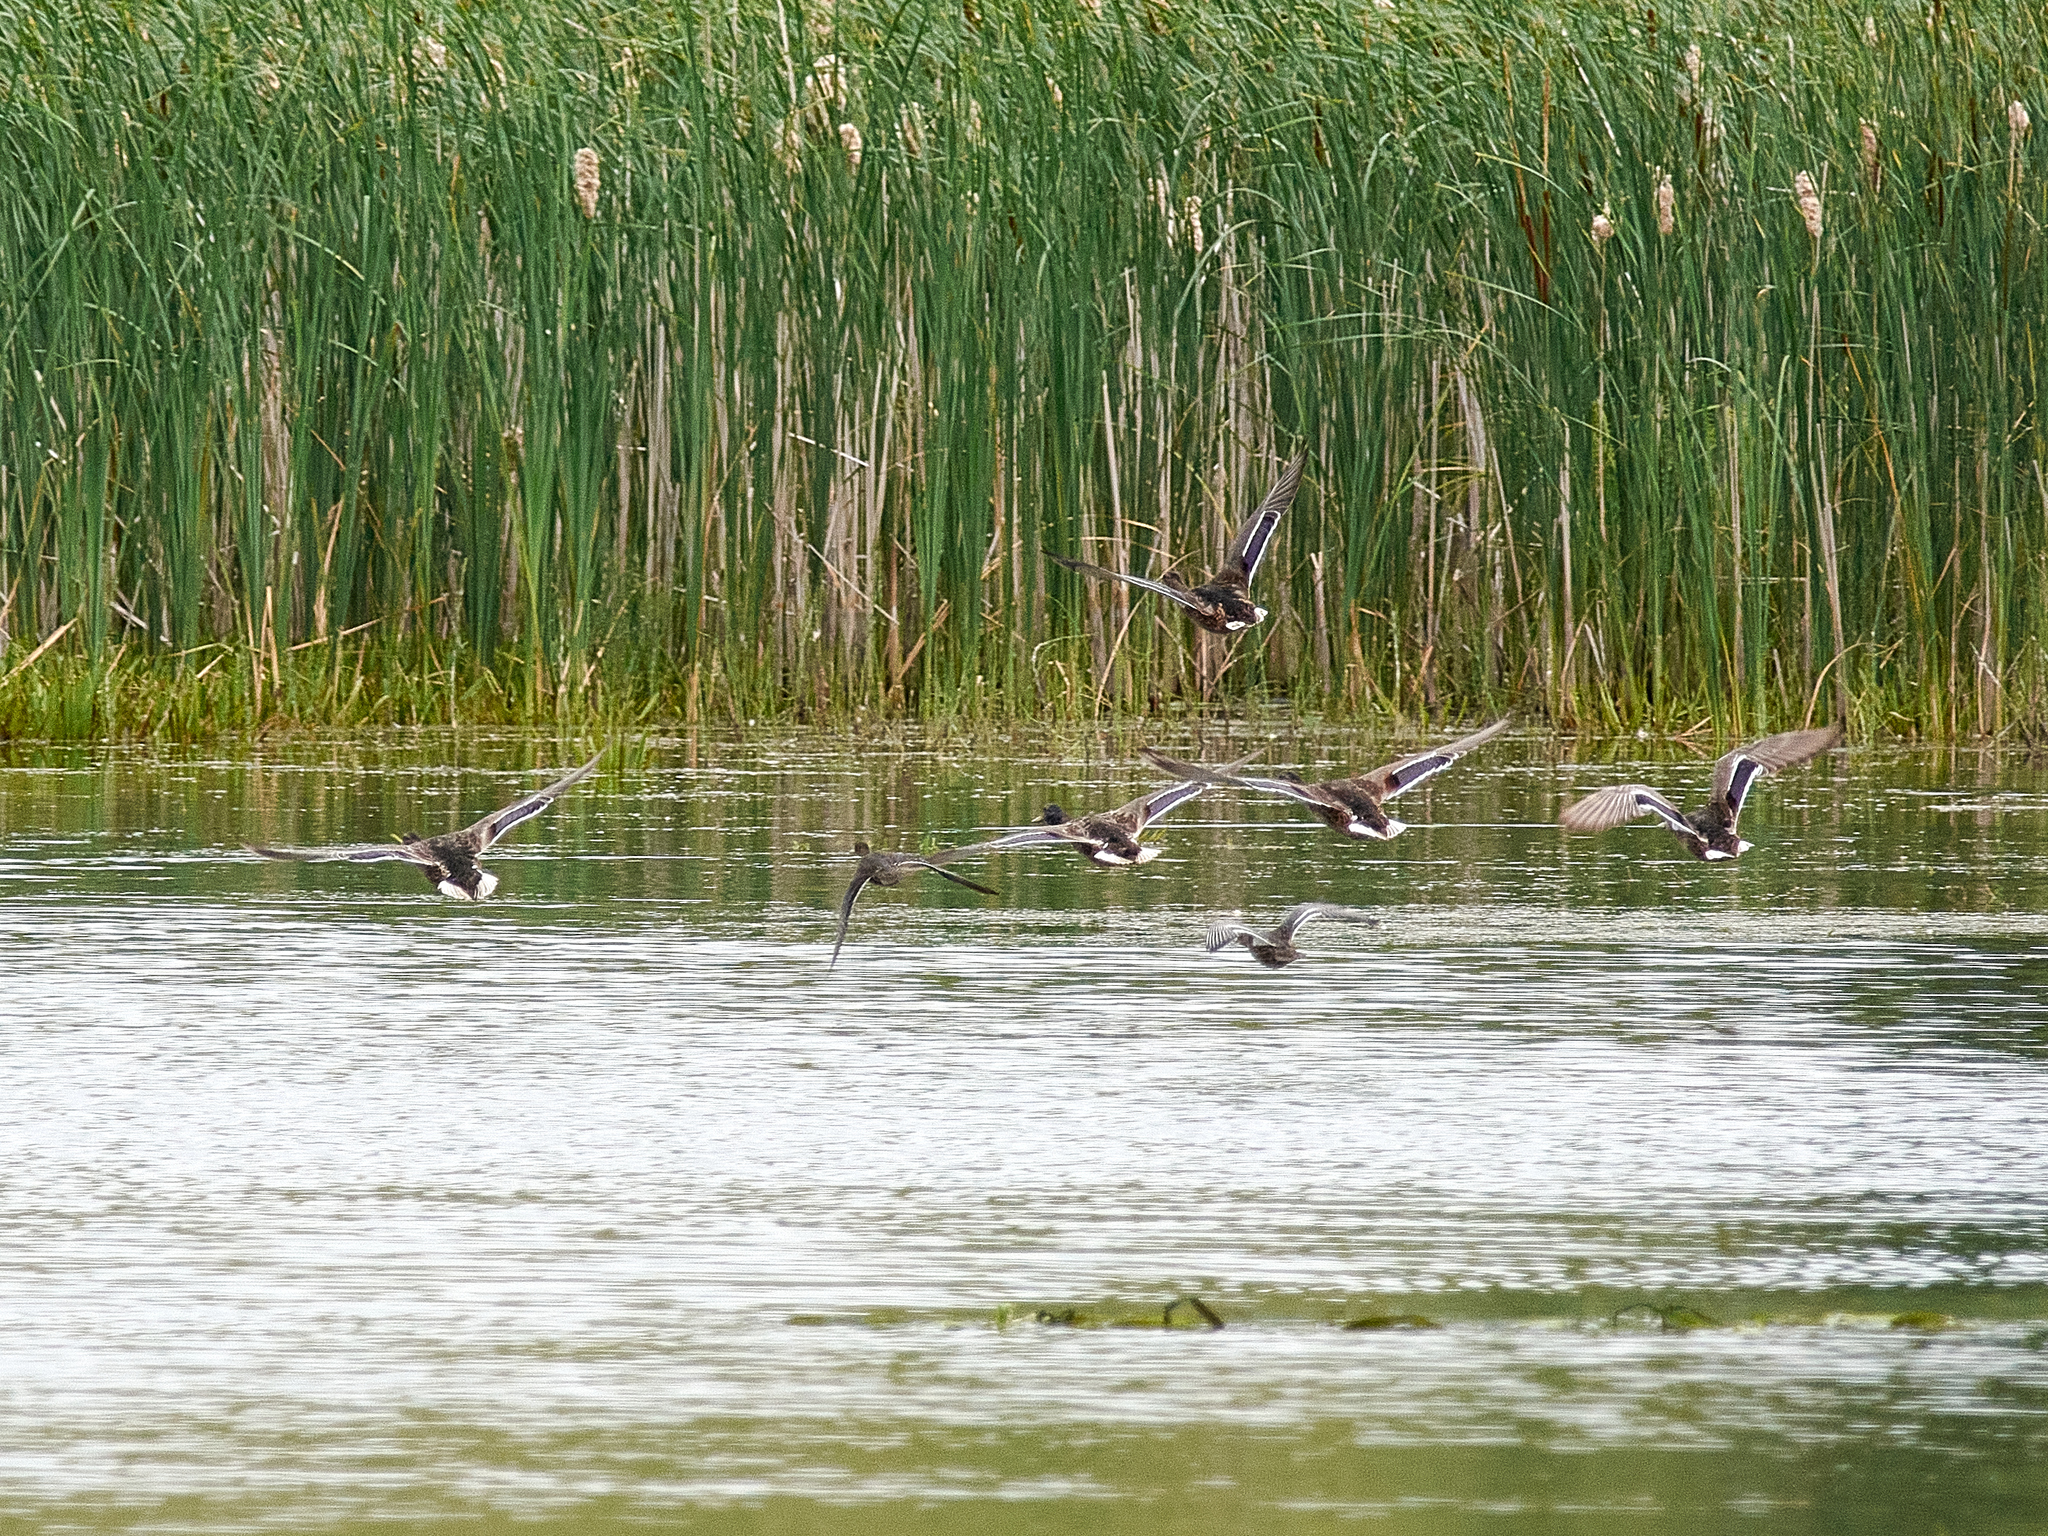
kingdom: Animalia
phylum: Chordata
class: Aves
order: Anseriformes
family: Anatidae
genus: Anas
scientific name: Anas platyrhynchos
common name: Mallard
